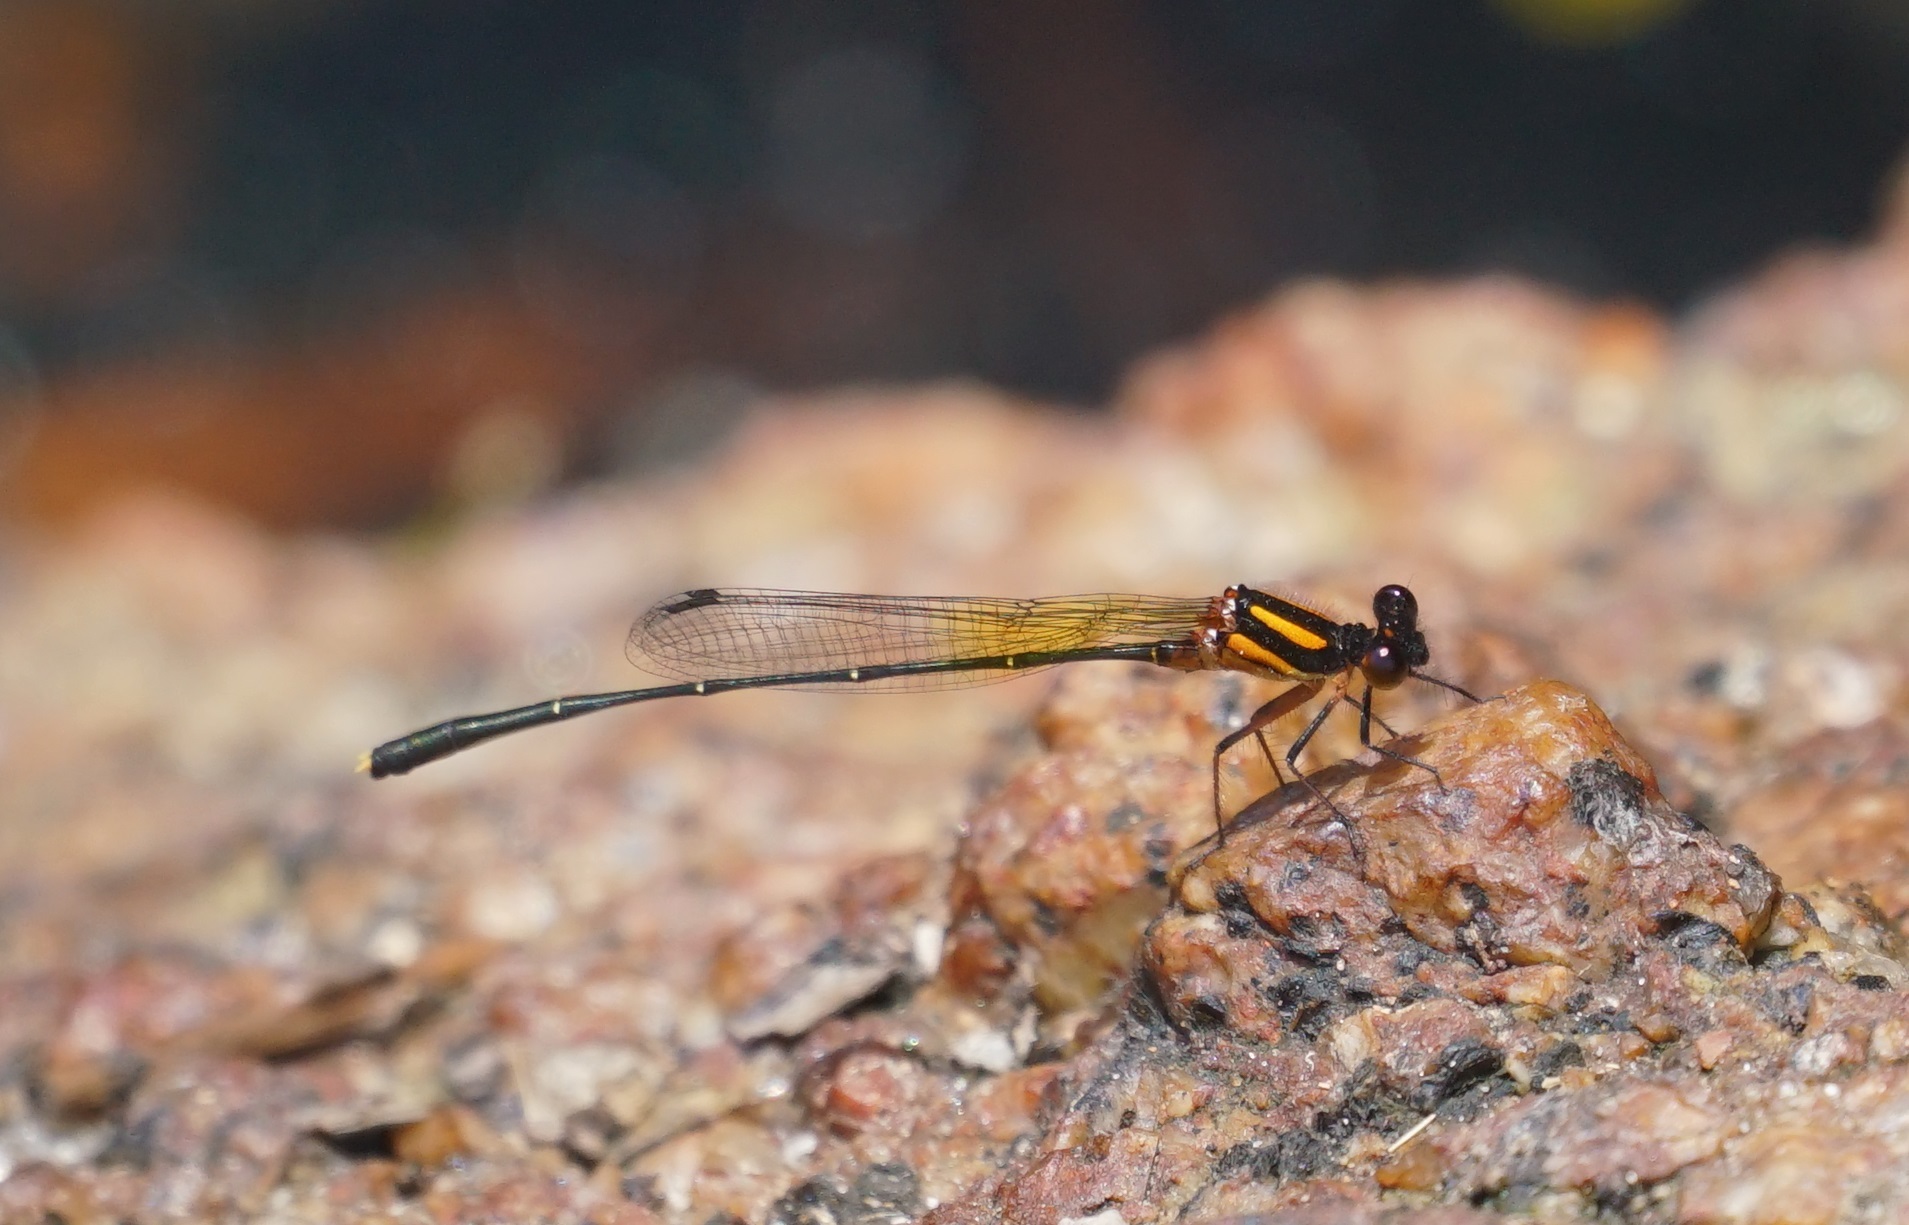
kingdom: Animalia
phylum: Arthropoda
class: Insecta
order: Odonata
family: Platycnemididae
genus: Nososticta
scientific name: Nososticta solida
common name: Orange threadtail
